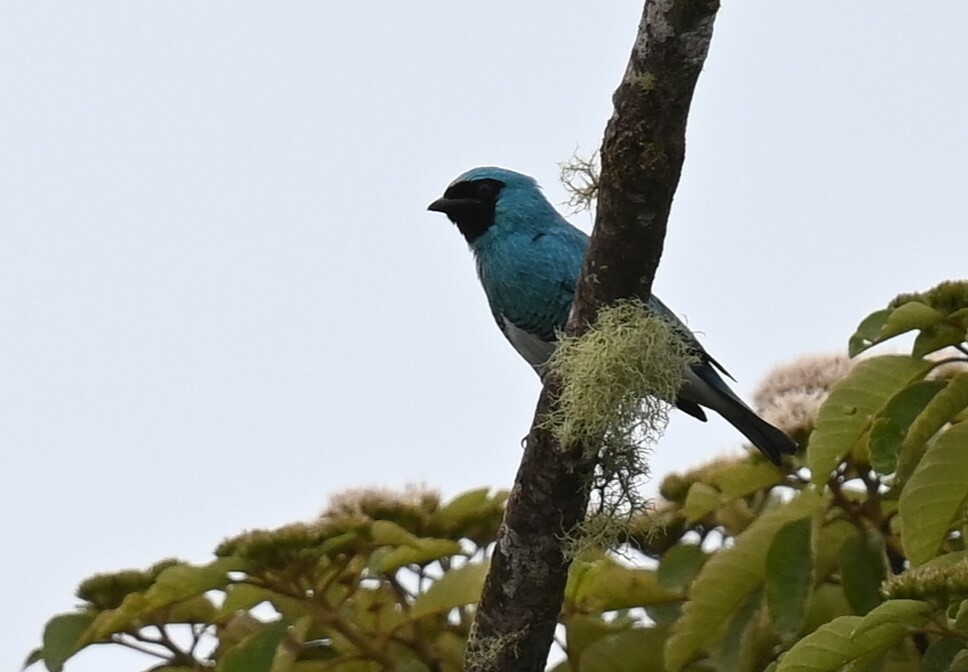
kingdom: Animalia
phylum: Chordata
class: Aves
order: Passeriformes
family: Thraupidae
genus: Tersina
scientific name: Tersina viridis
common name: Swallow tanager
